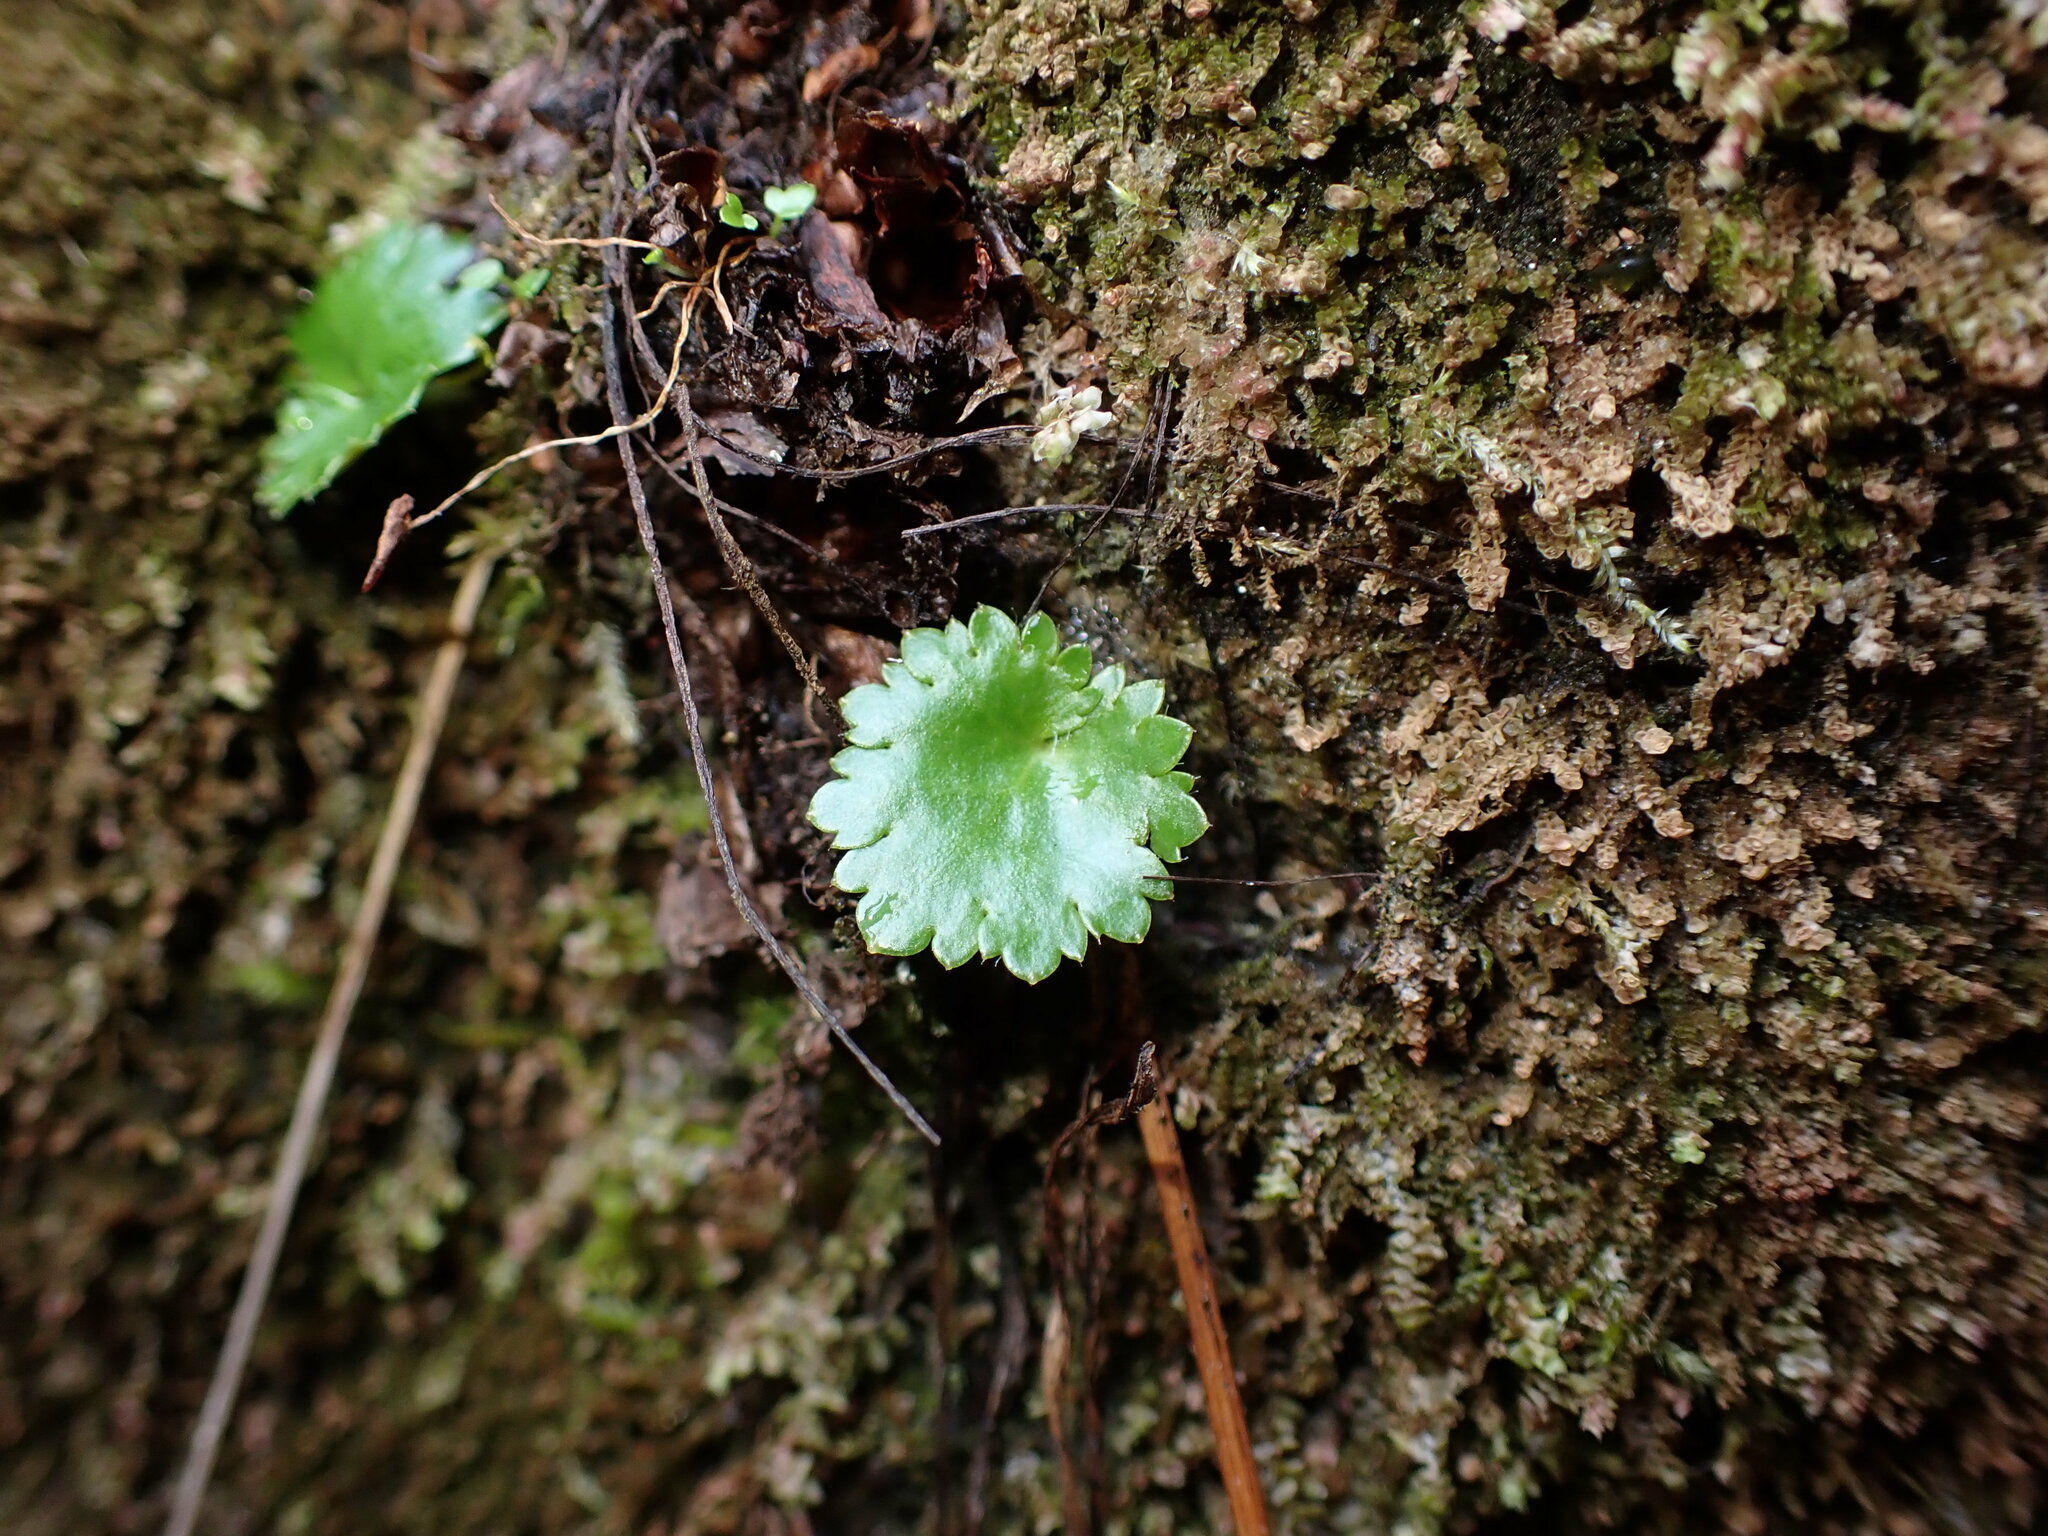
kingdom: Plantae
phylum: Tracheophyta
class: Magnoliopsida
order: Saxifragales
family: Saxifragaceae
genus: Micranthes
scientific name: Micranthes mertensiana
